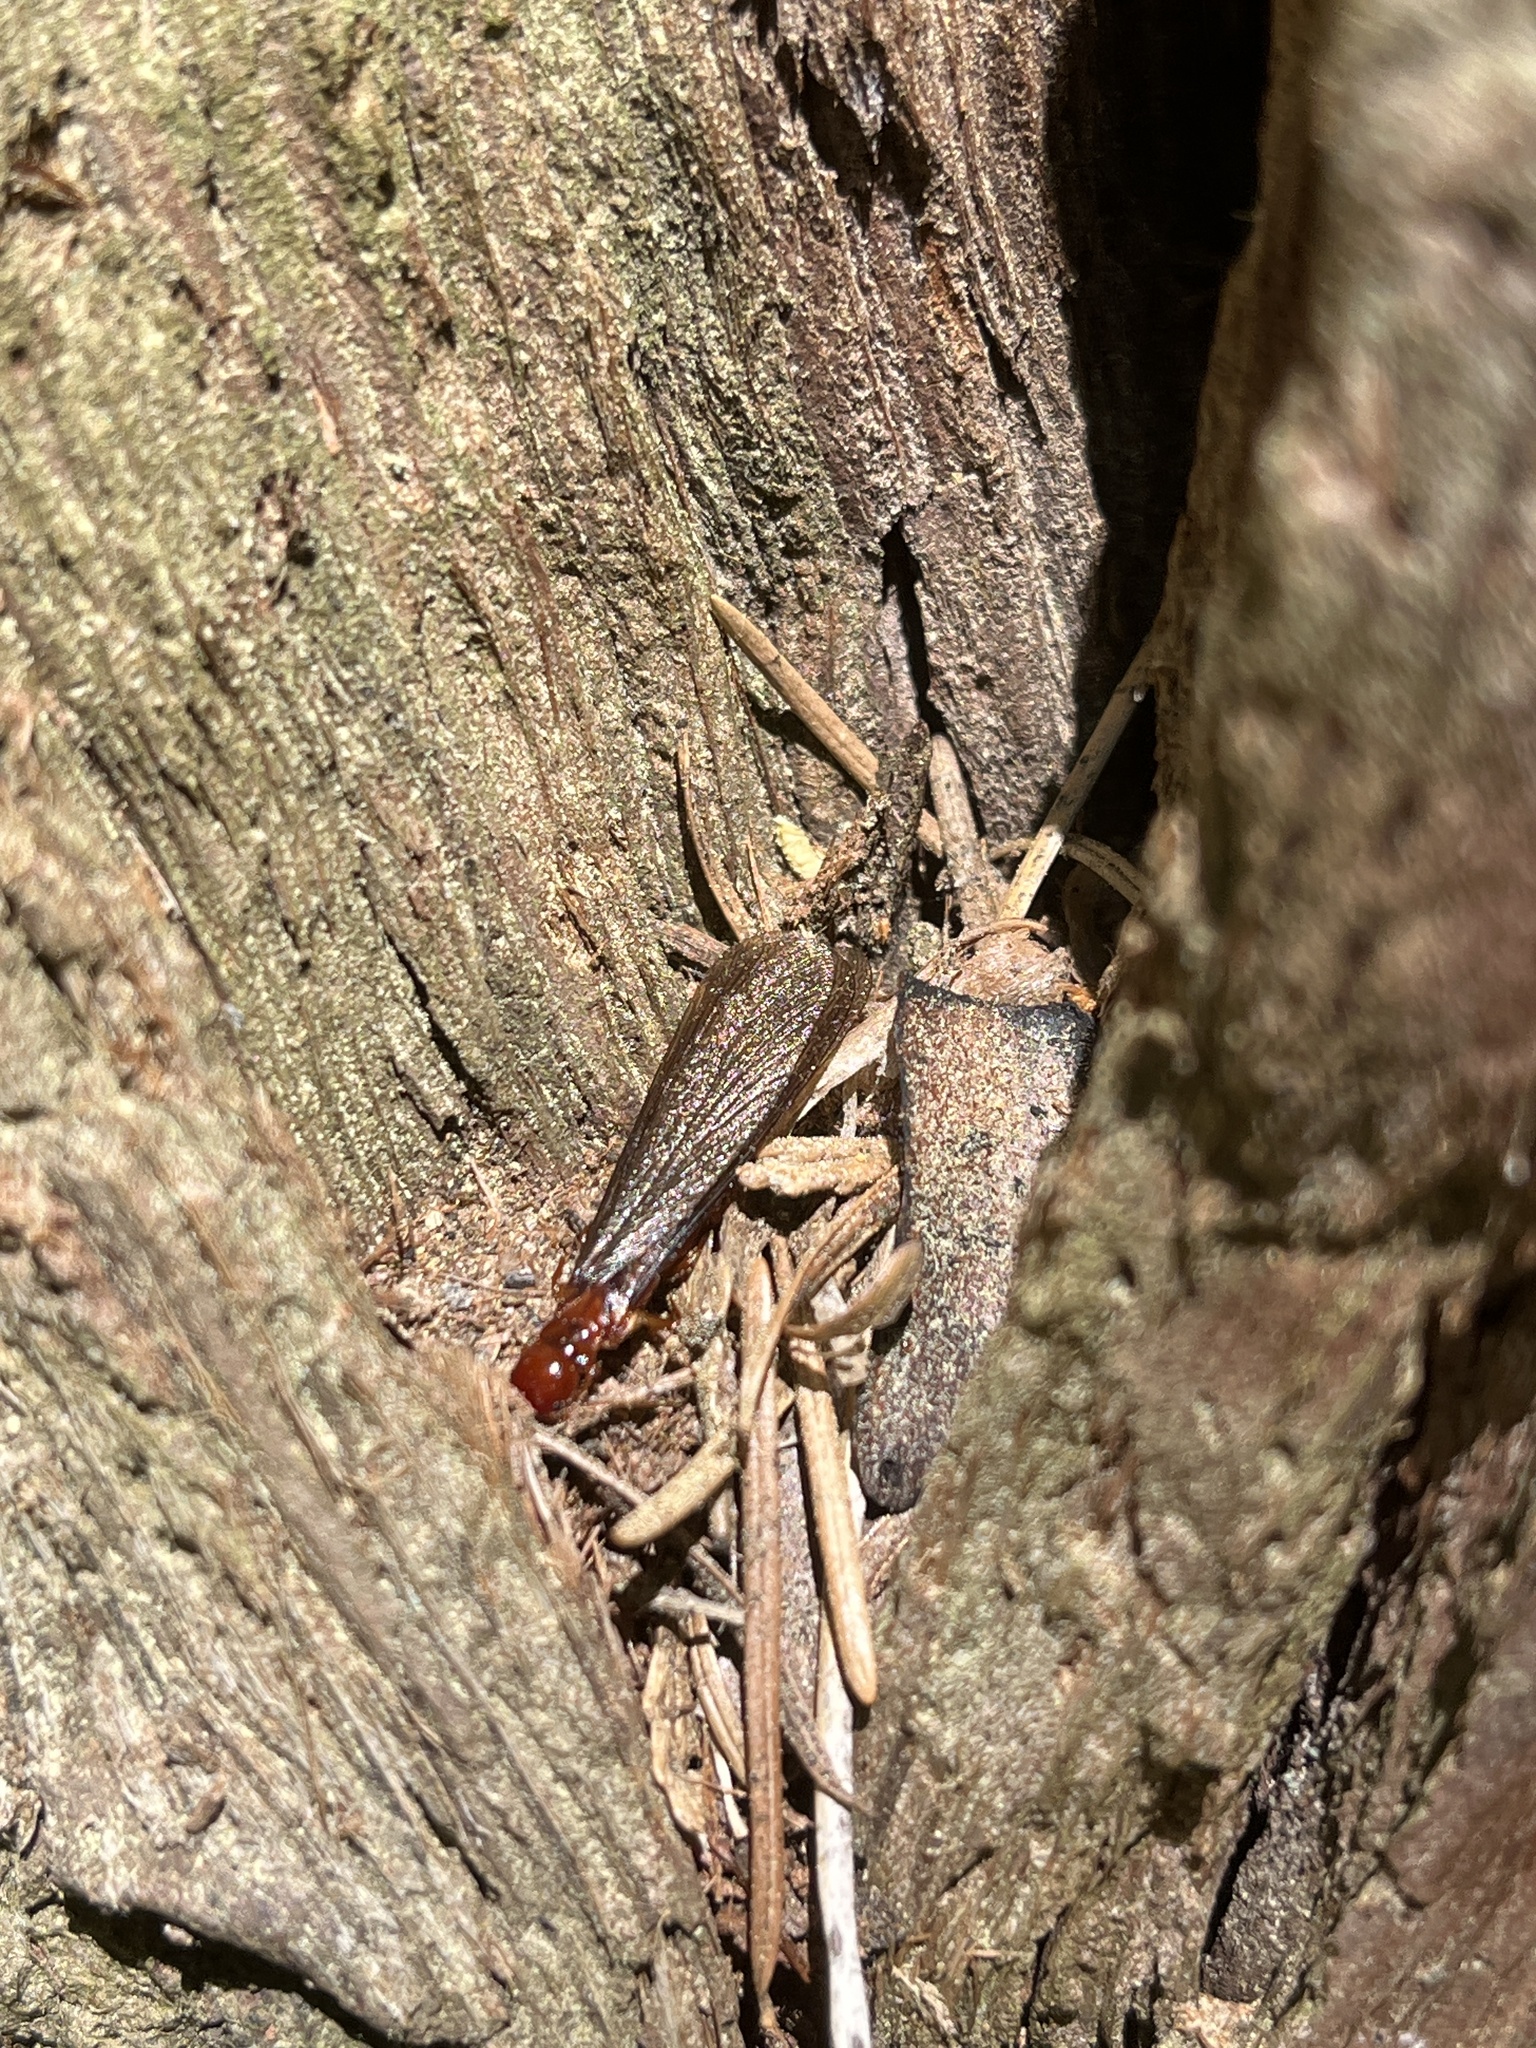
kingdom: Animalia
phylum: Arthropoda
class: Insecta
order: Blattodea
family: Archotermopsidae
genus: Zootermopsis
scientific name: Zootermopsis nevadensis
